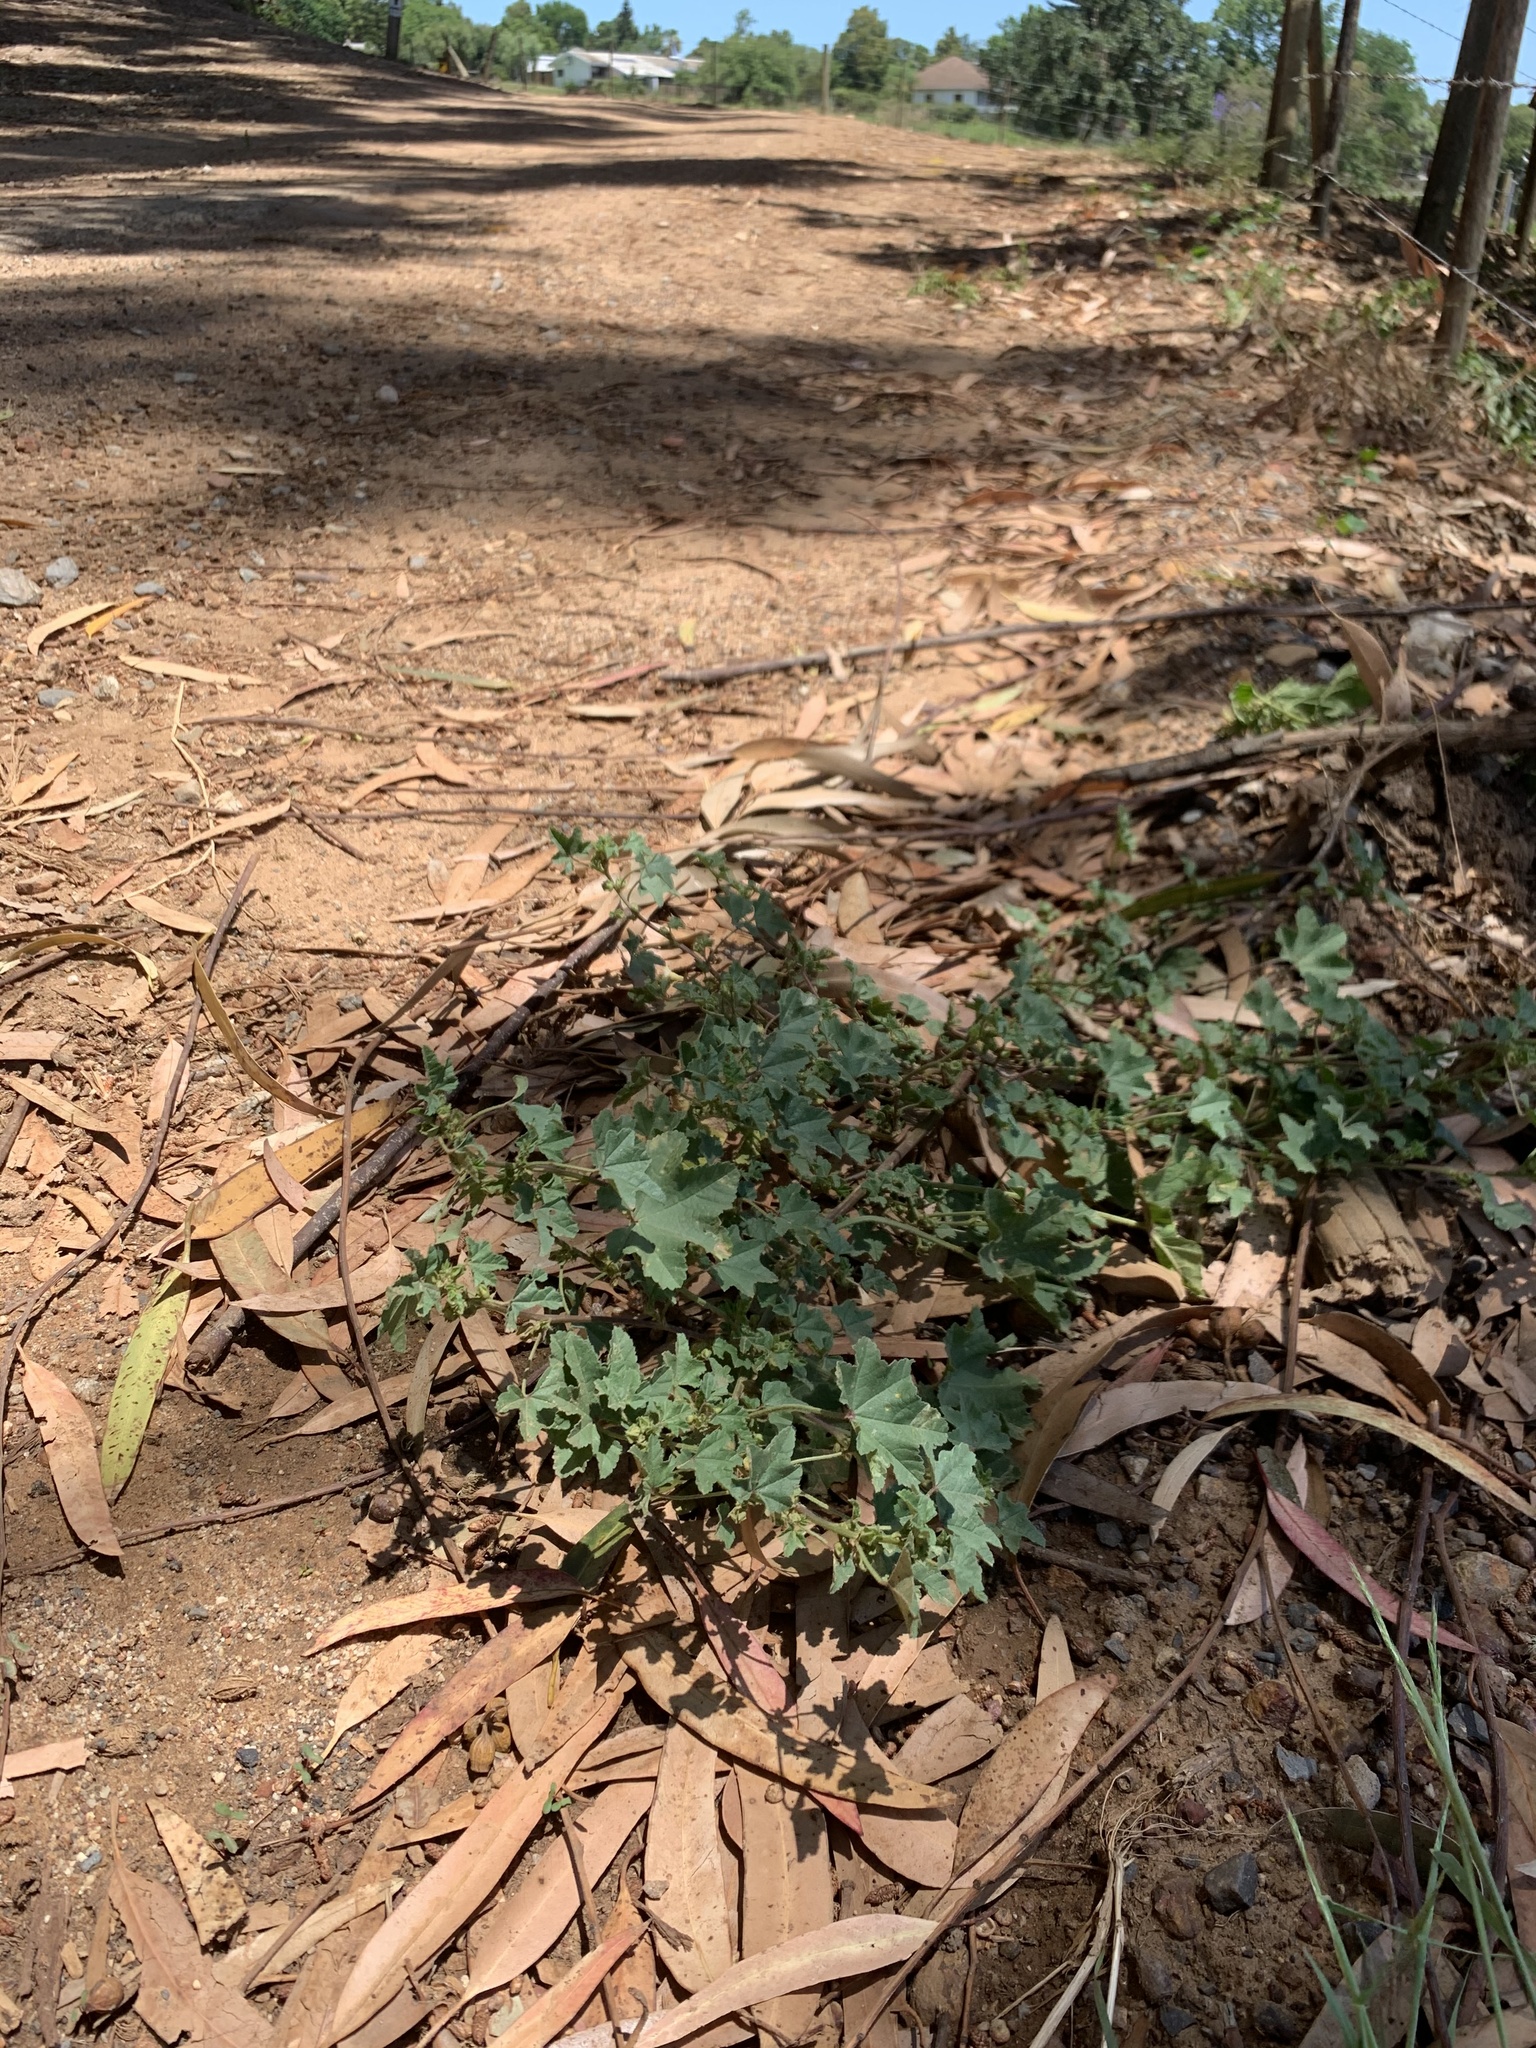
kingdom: Plantae
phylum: Tracheophyta
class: Magnoliopsida
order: Malvales
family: Malvaceae
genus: Malva
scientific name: Malva parviflora
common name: Least mallow
